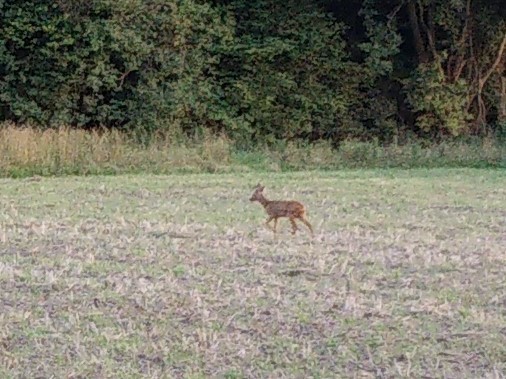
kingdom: Animalia
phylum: Chordata
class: Mammalia
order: Artiodactyla
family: Cervidae
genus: Capreolus
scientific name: Capreolus capreolus
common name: Western roe deer
